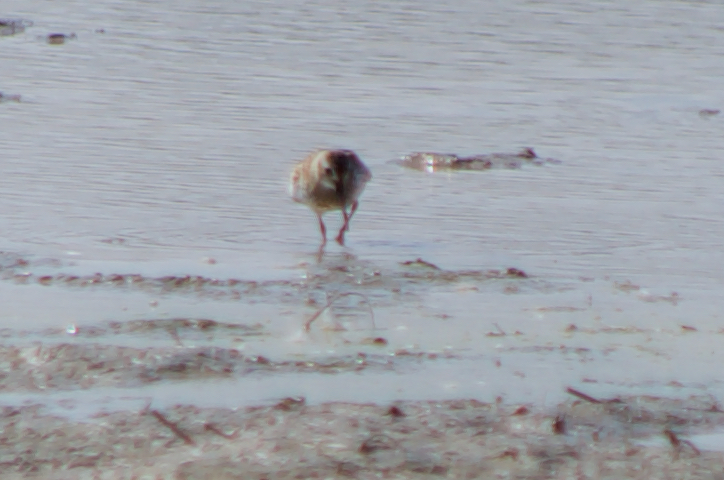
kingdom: Animalia
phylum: Chordata
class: Aves
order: Charadriiformes
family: Scolopacidae
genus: Calidris
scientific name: Calidris alpina
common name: Dunlin
